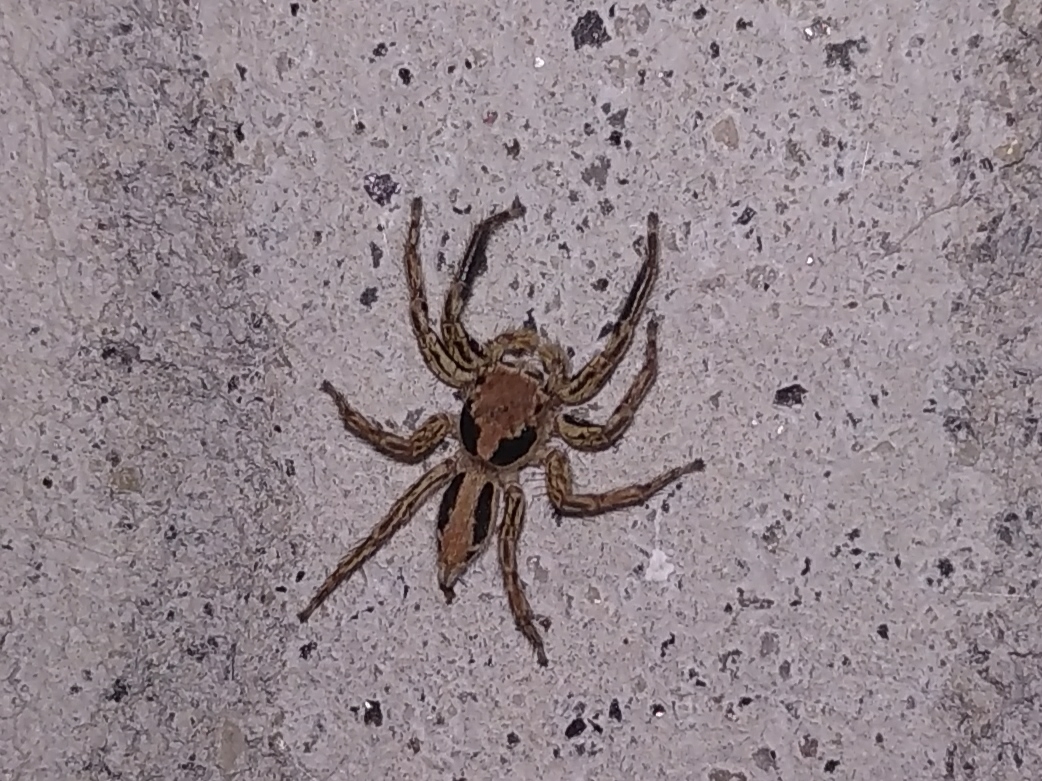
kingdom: Animalia
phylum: Arthropoda
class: Arachnida
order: Araneae
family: Salticidae
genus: Plexippus
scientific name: Plexippus petersi
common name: Jumping spider
